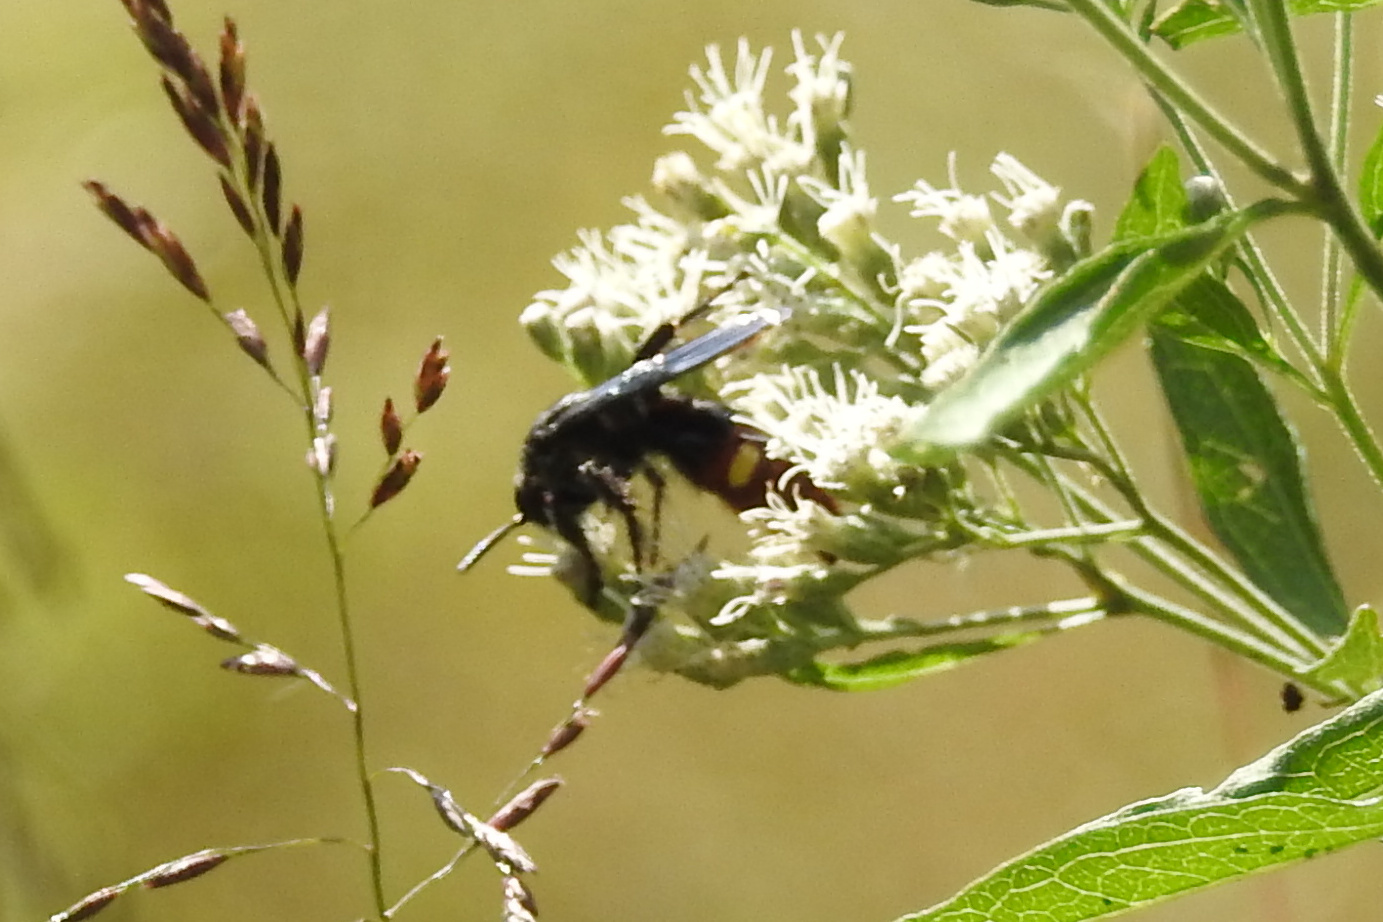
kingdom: Animalia
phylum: Arthropoda
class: Insecta
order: Hymenoptera
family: Scoliidae
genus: Scolia
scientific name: Scolia dubia
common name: Blue-winged scoliid wasp
